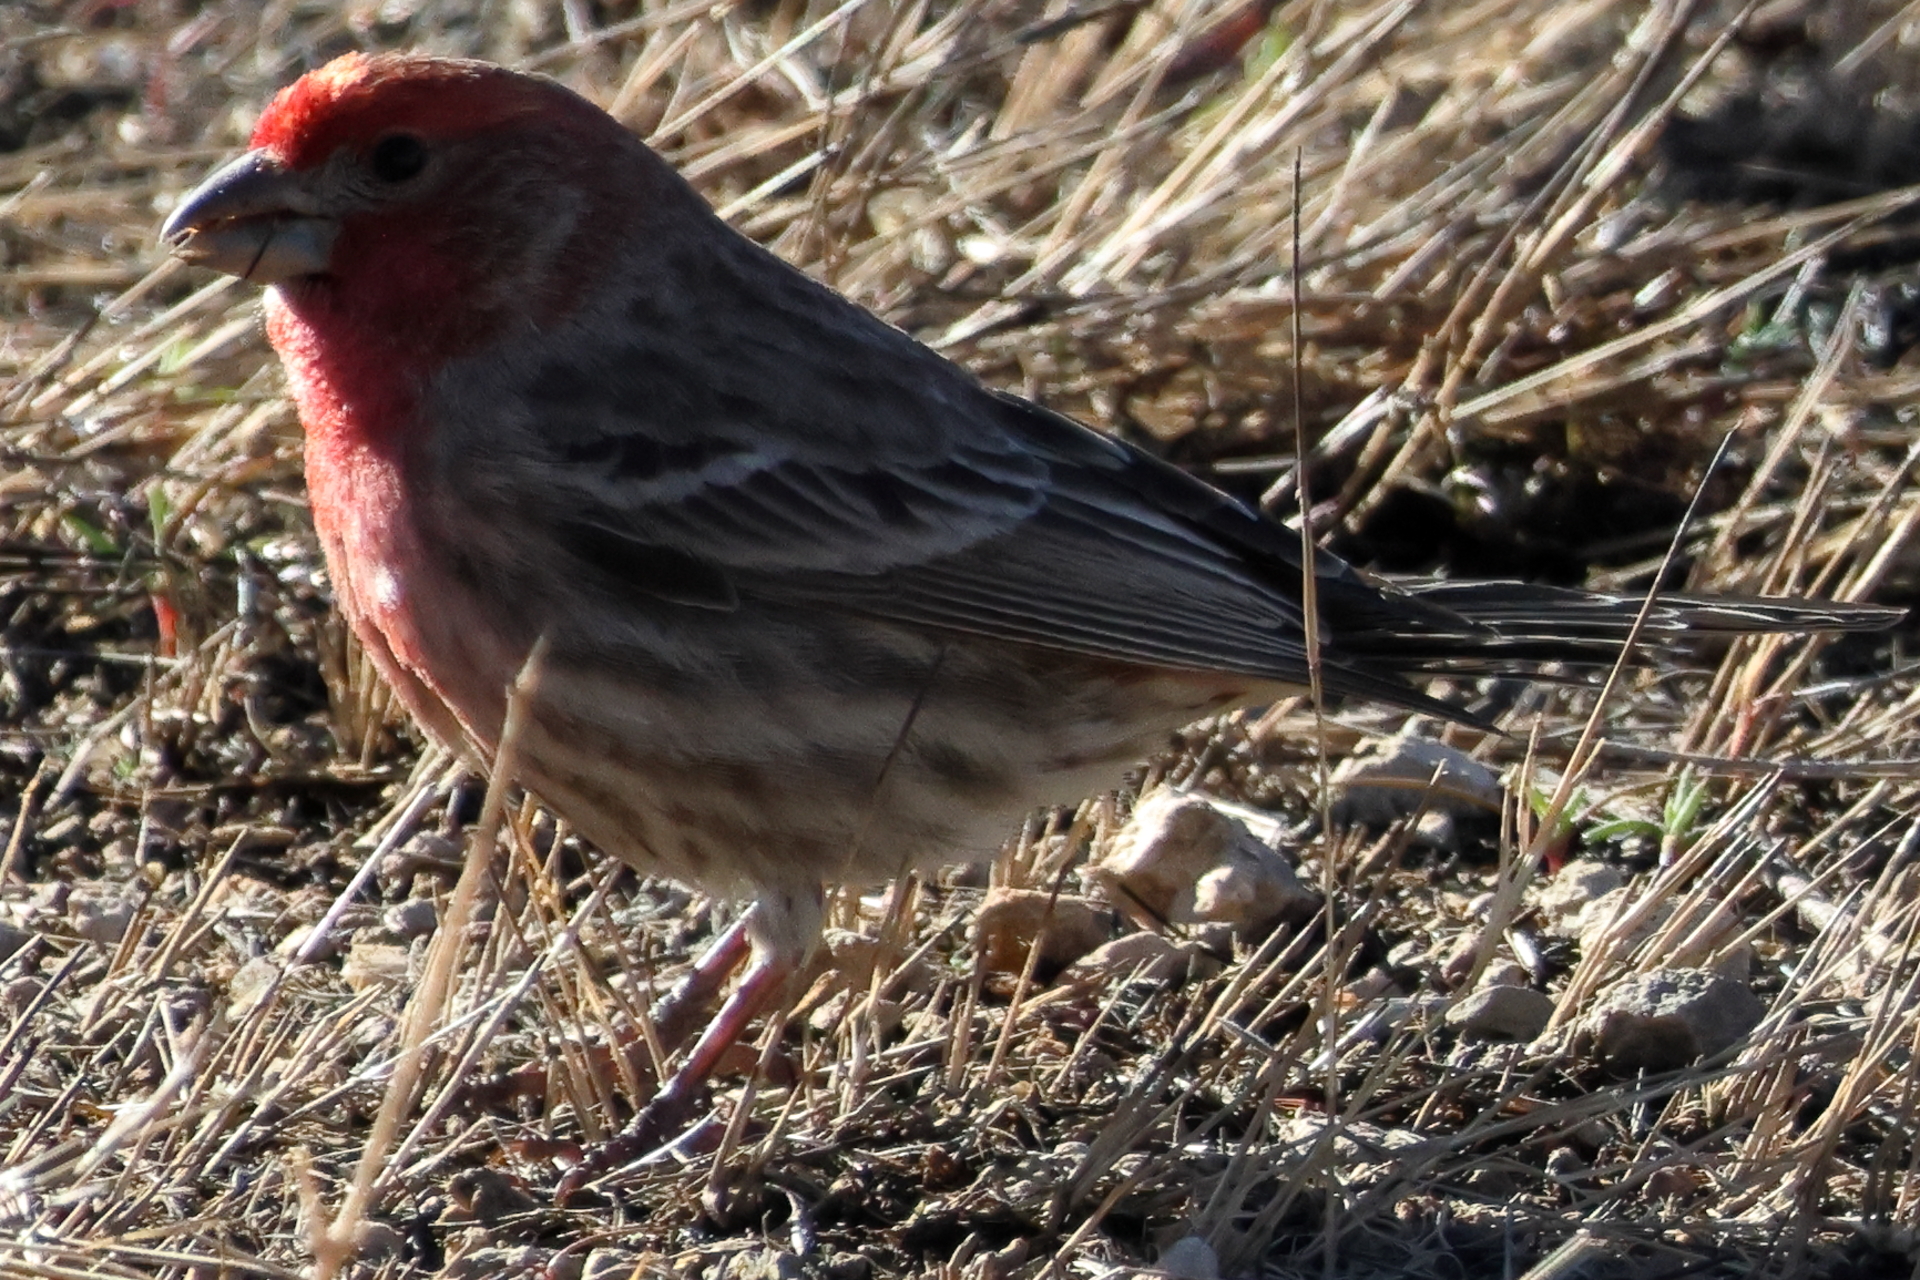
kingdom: Animalia
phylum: Chordata
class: Aves
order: Passeriformes
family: Fringillidae
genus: Haemorhous
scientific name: Haemorhous mexicanus
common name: House finch
